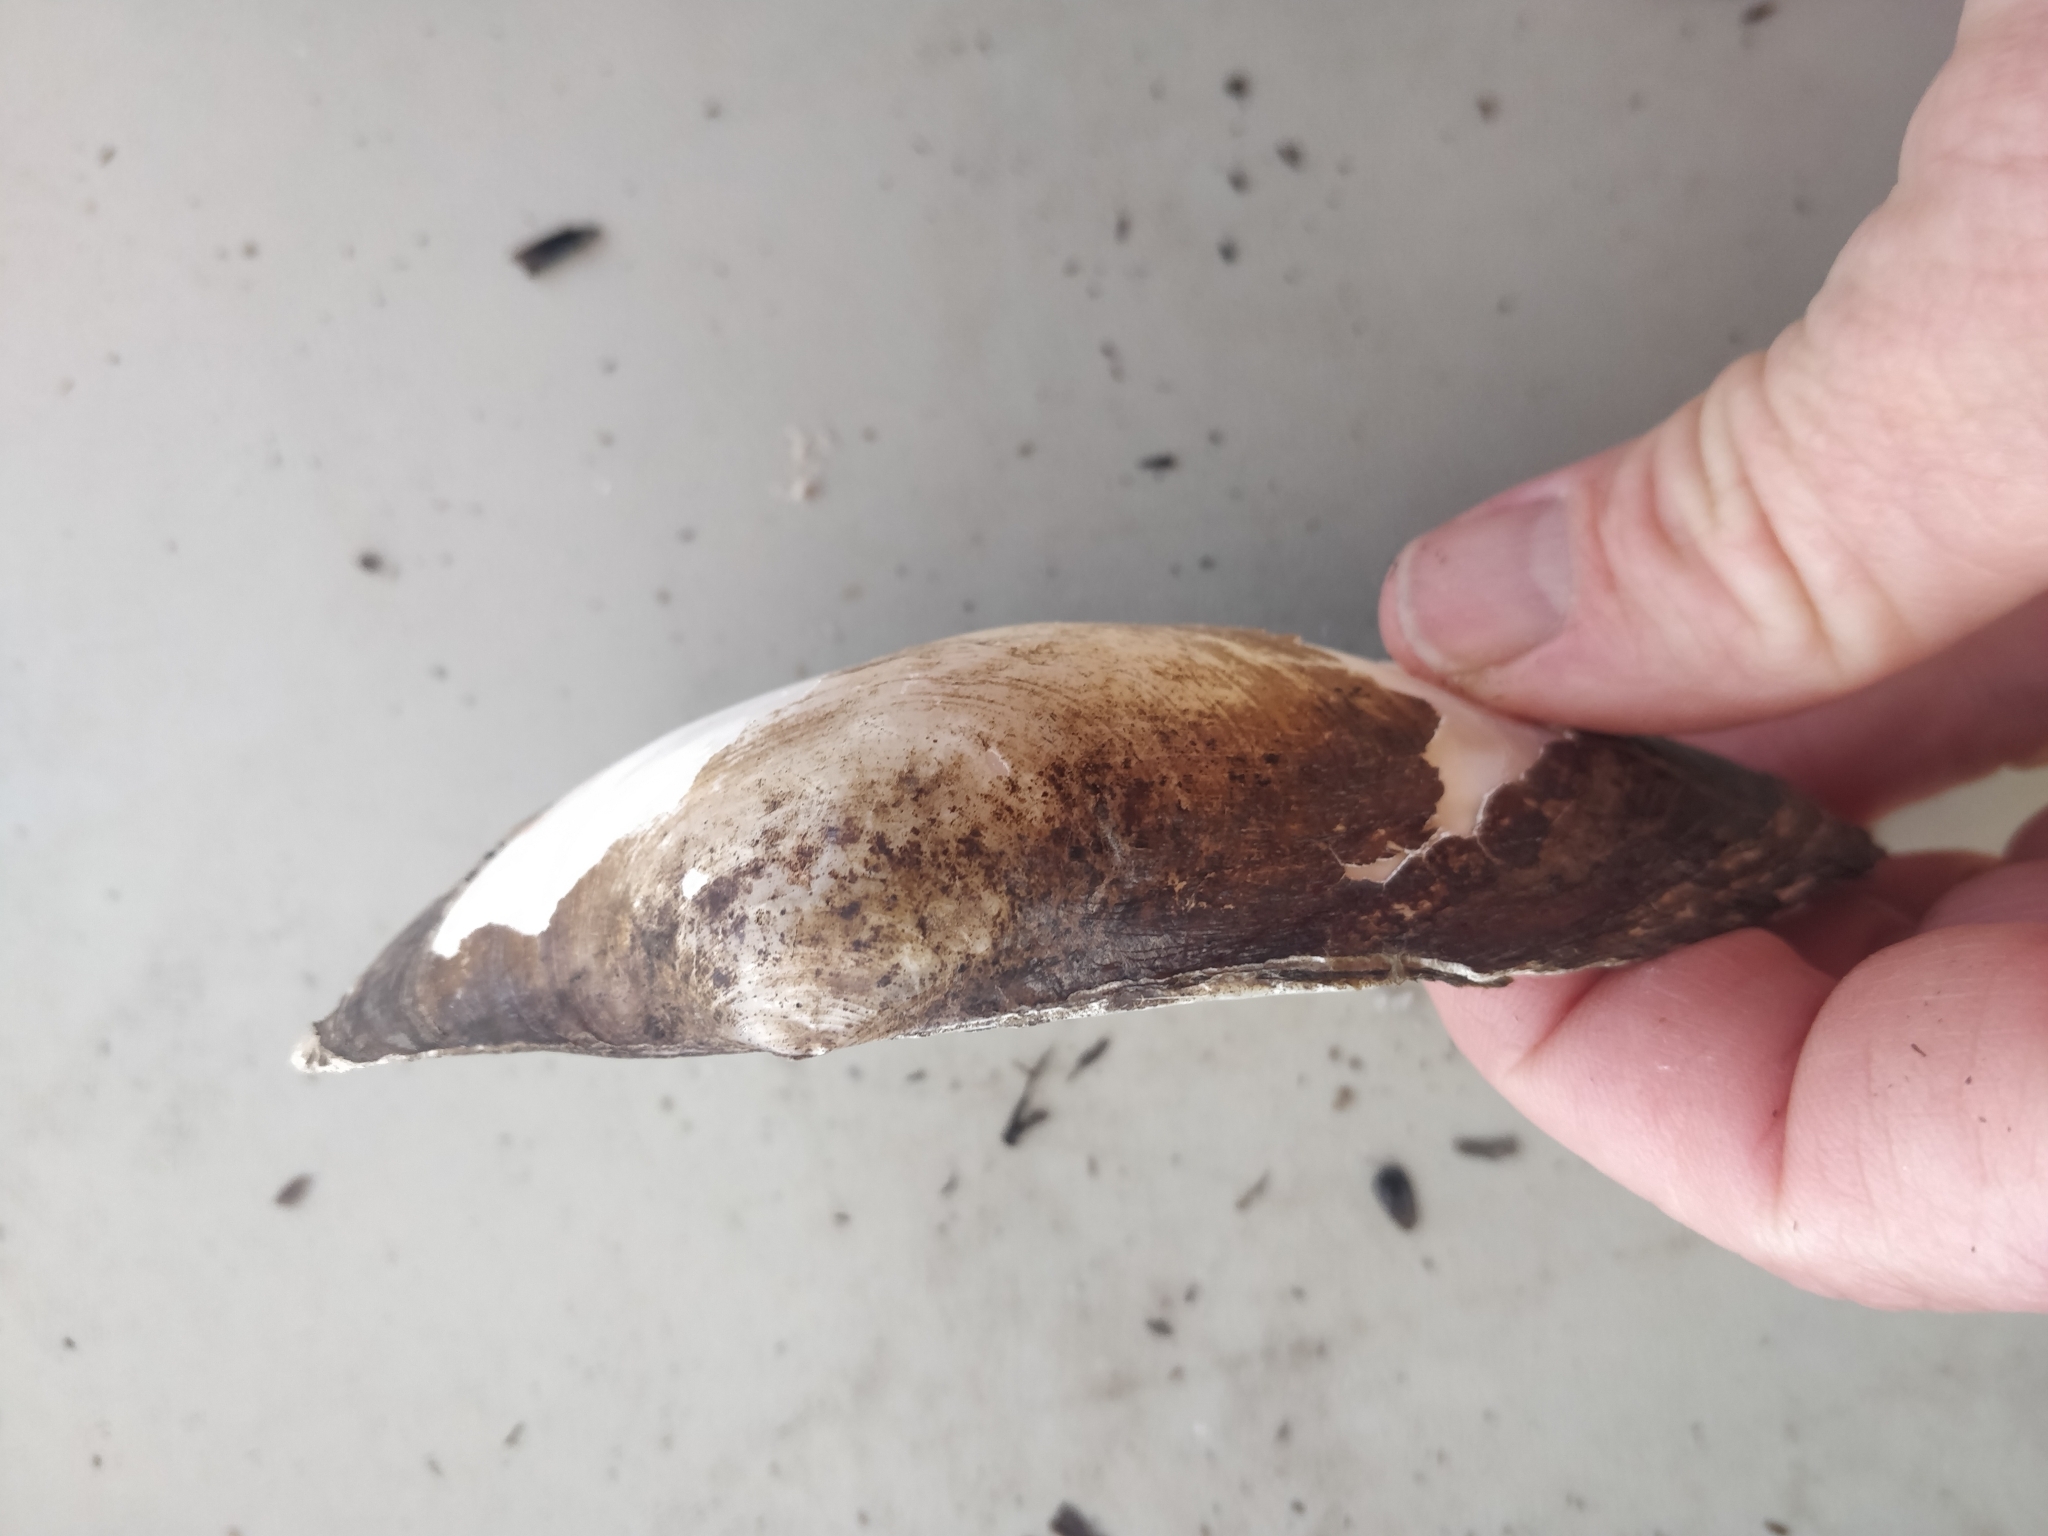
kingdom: Animalia
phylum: Mollusca
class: Bivalvia
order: Unionida
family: Unionidae
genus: Pyganodon
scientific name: Pyganodon grandis
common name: Giant floater
